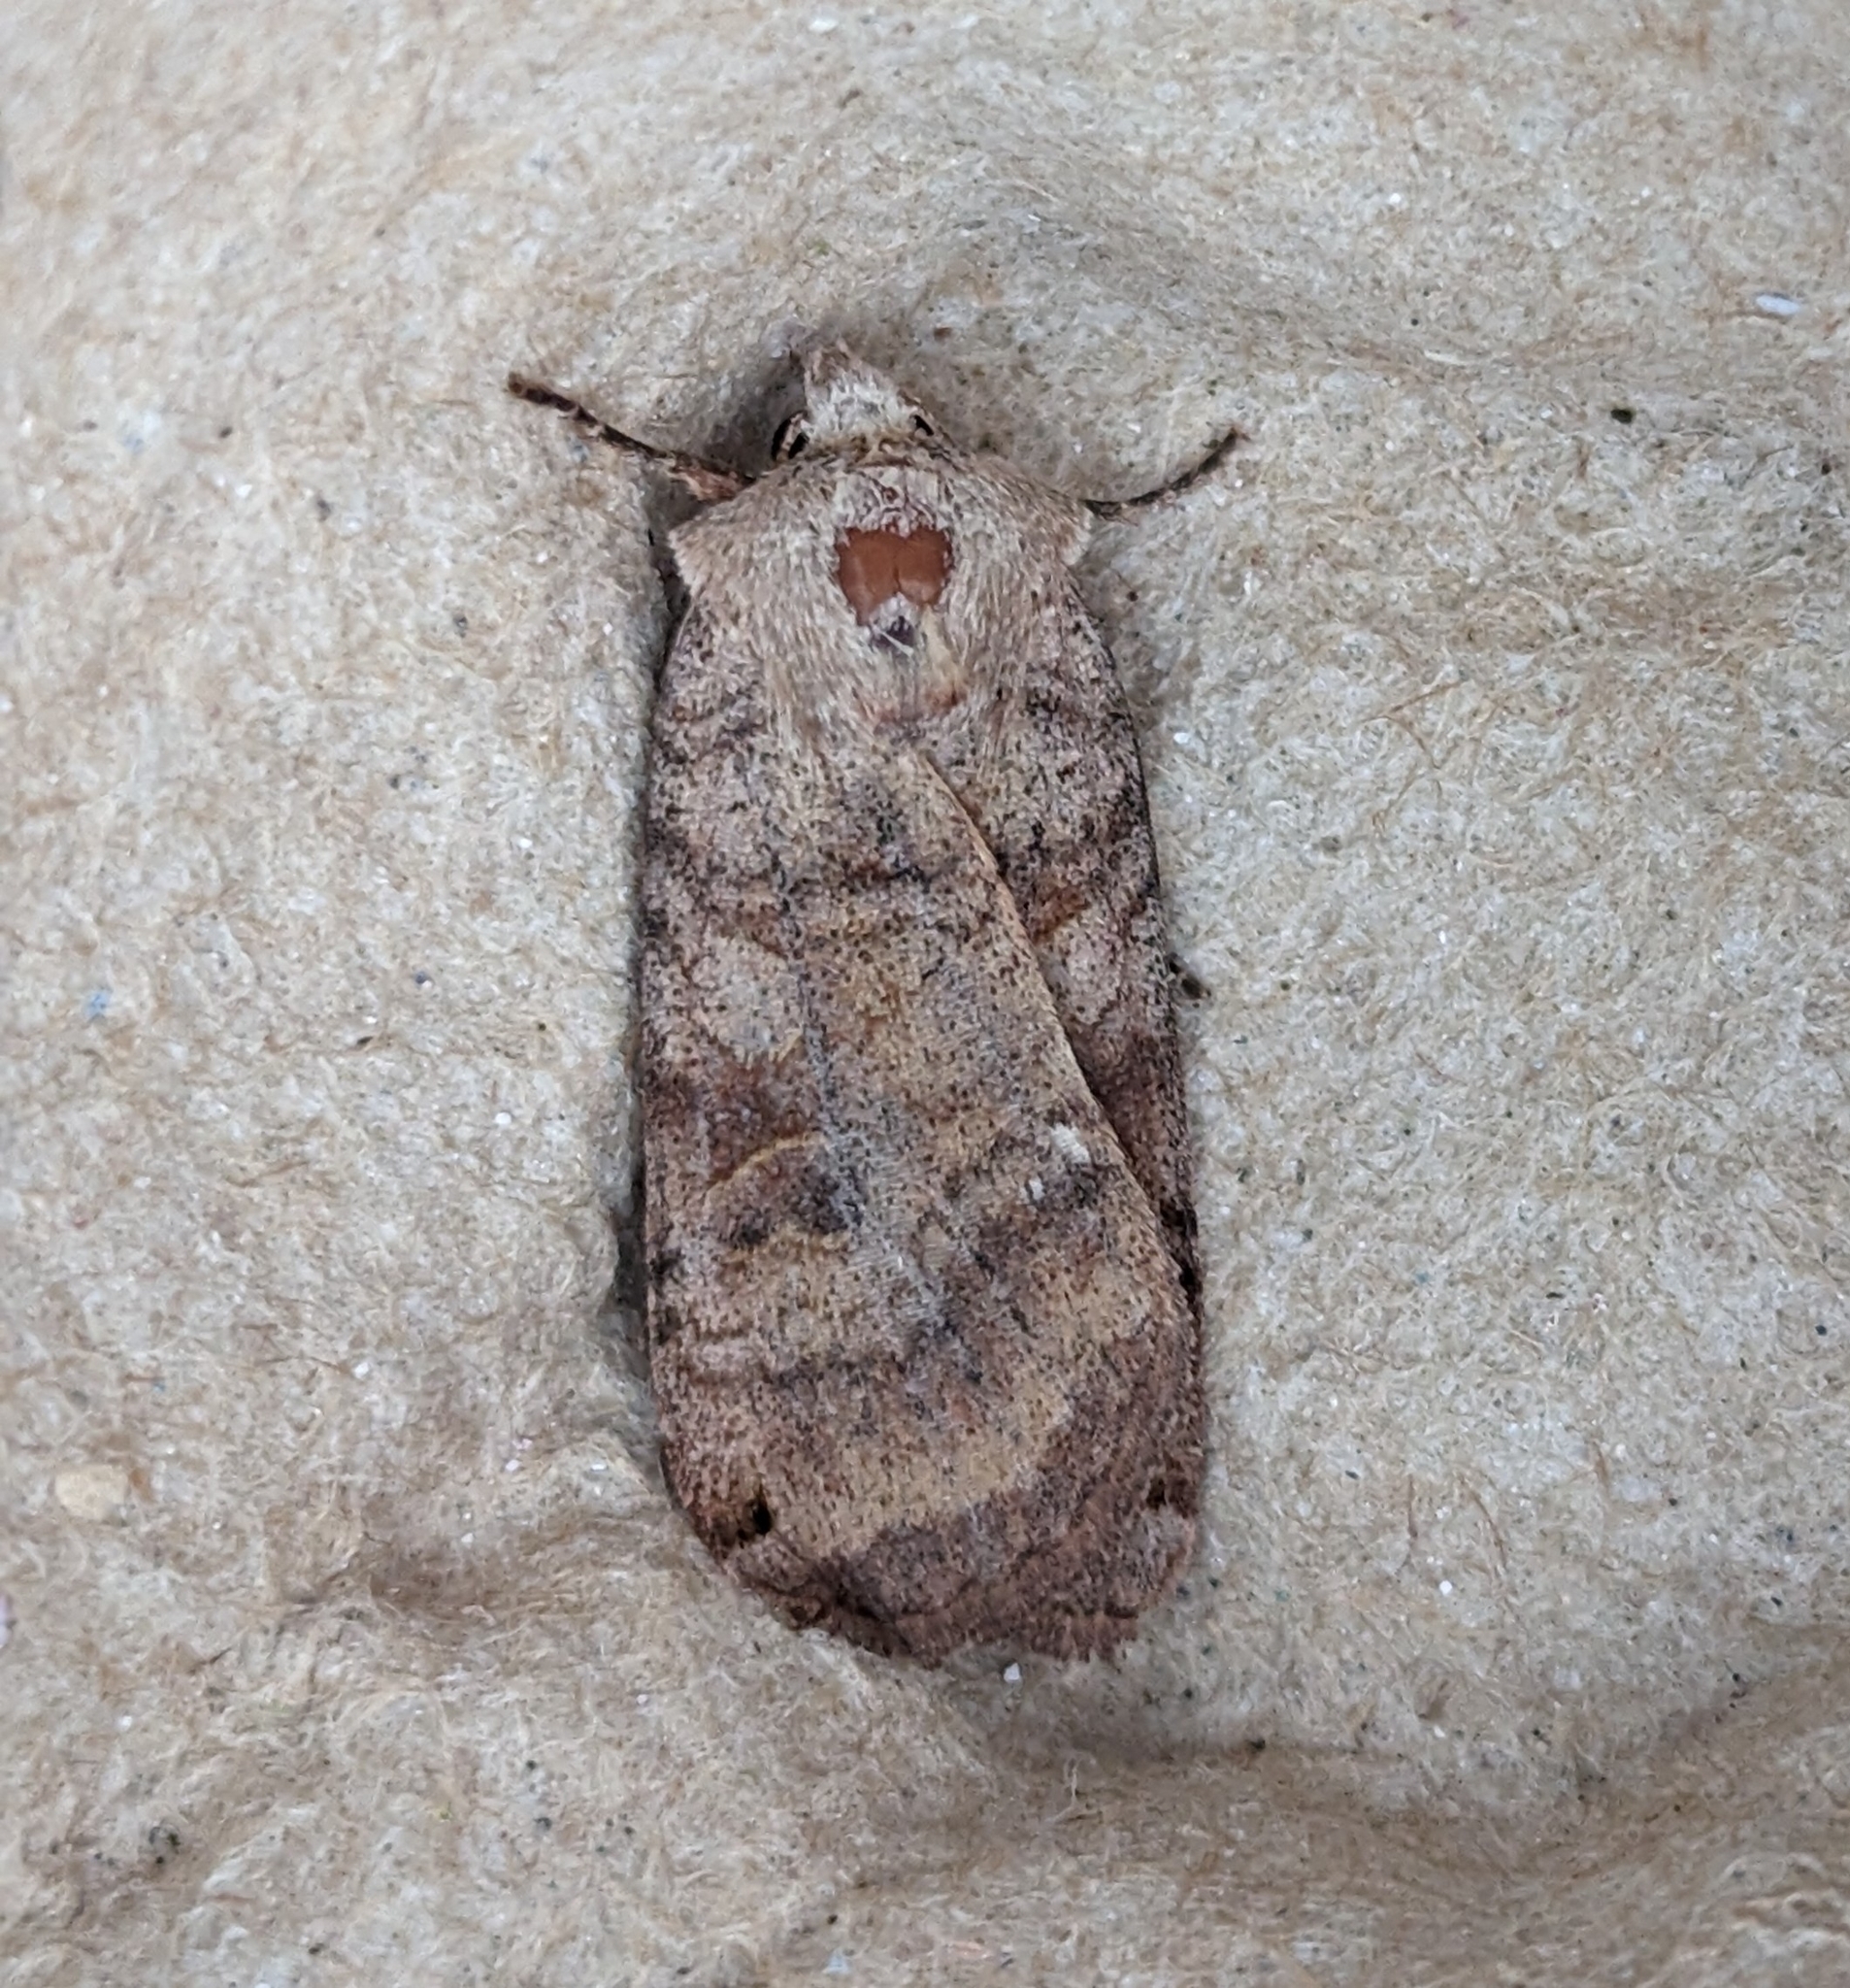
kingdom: Animalia
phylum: Arthropoda
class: Insecta
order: Lepidoptera
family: Noctuidae
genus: Xestia
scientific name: Xestia smithii
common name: Smith's dart
